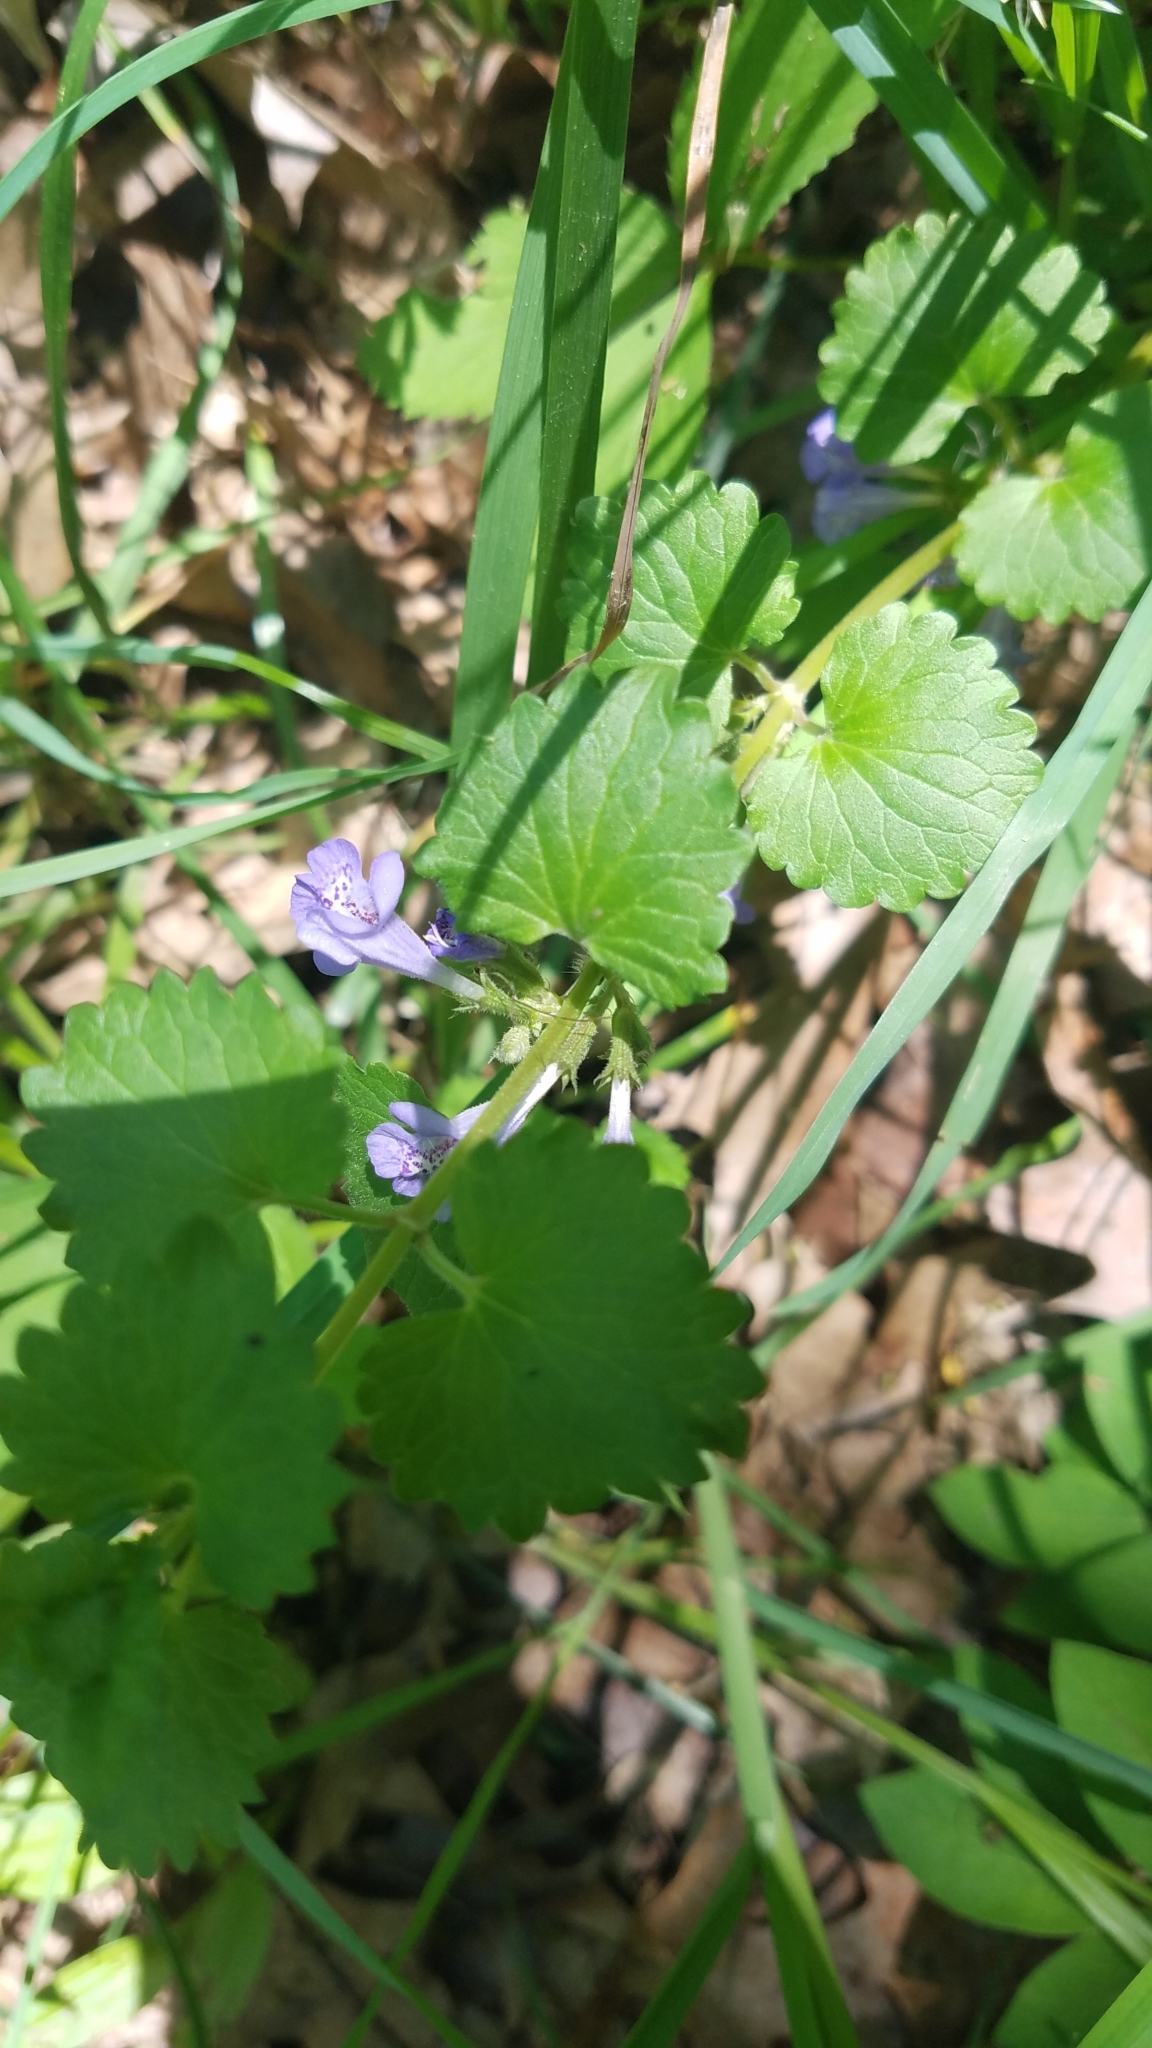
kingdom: Plantae
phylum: Tracheophyta
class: Magnoliopsida
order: Lamiales
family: Lamiaceae
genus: Glechoma
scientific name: Glechoma hederacea
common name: Ground ivy
